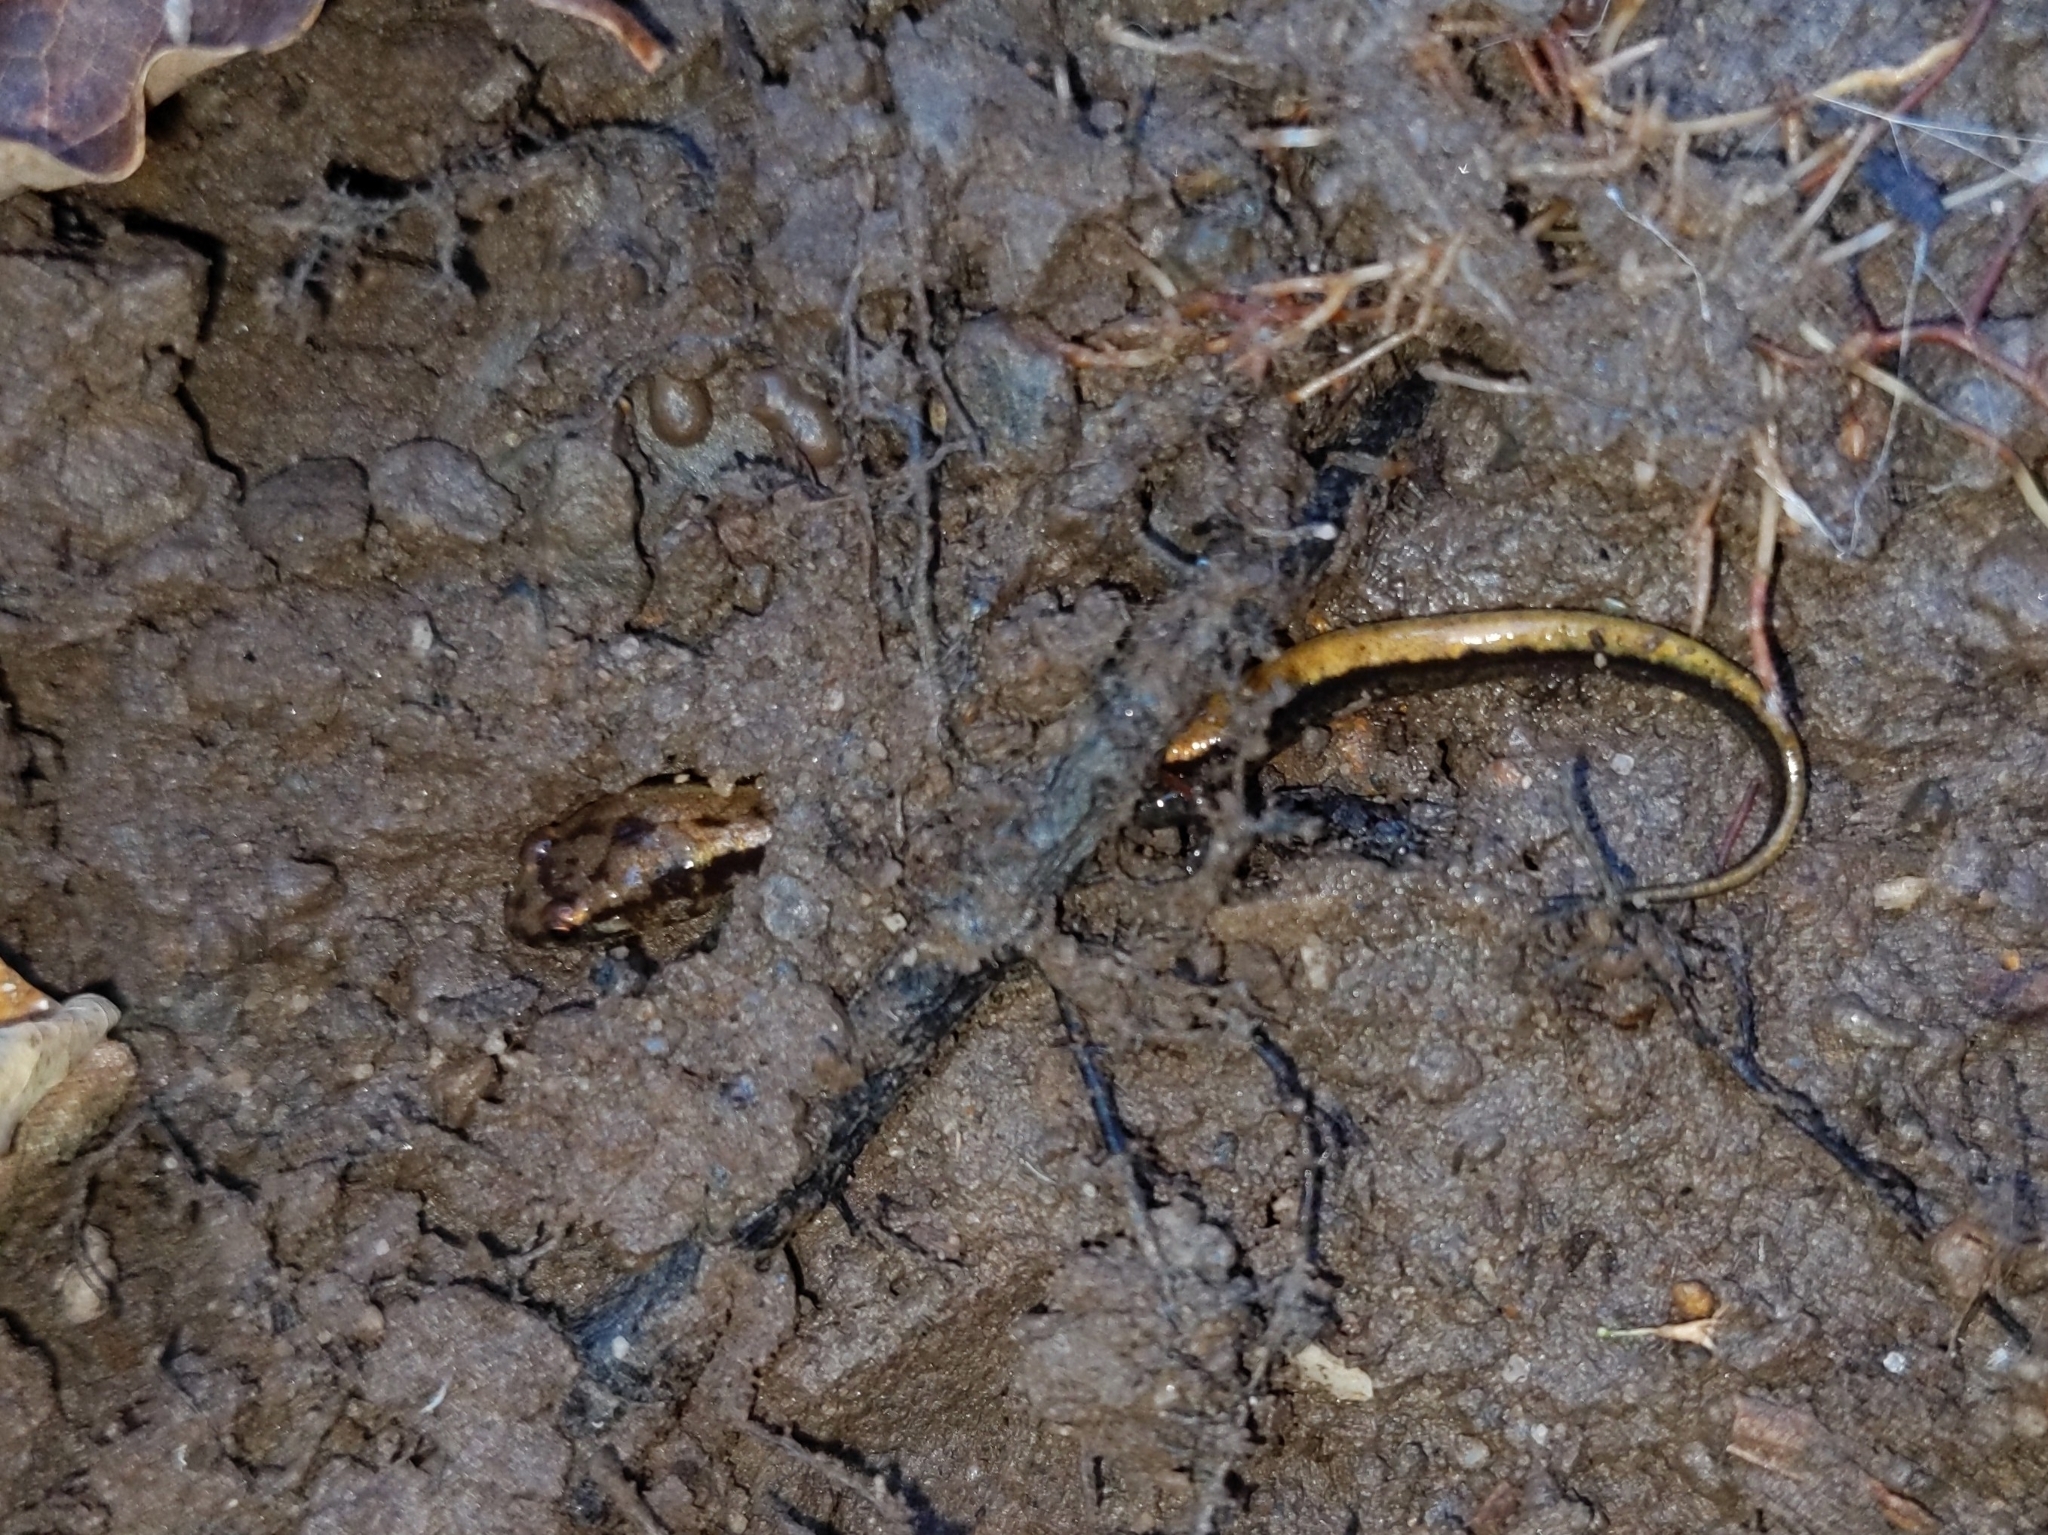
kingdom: Animalia
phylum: Chordata
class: Amphibia
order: Caudata
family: Plethodontidae
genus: Desmognathus
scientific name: Desmognathus ochrophaeus
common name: Allegheny mountain dusky salamander
